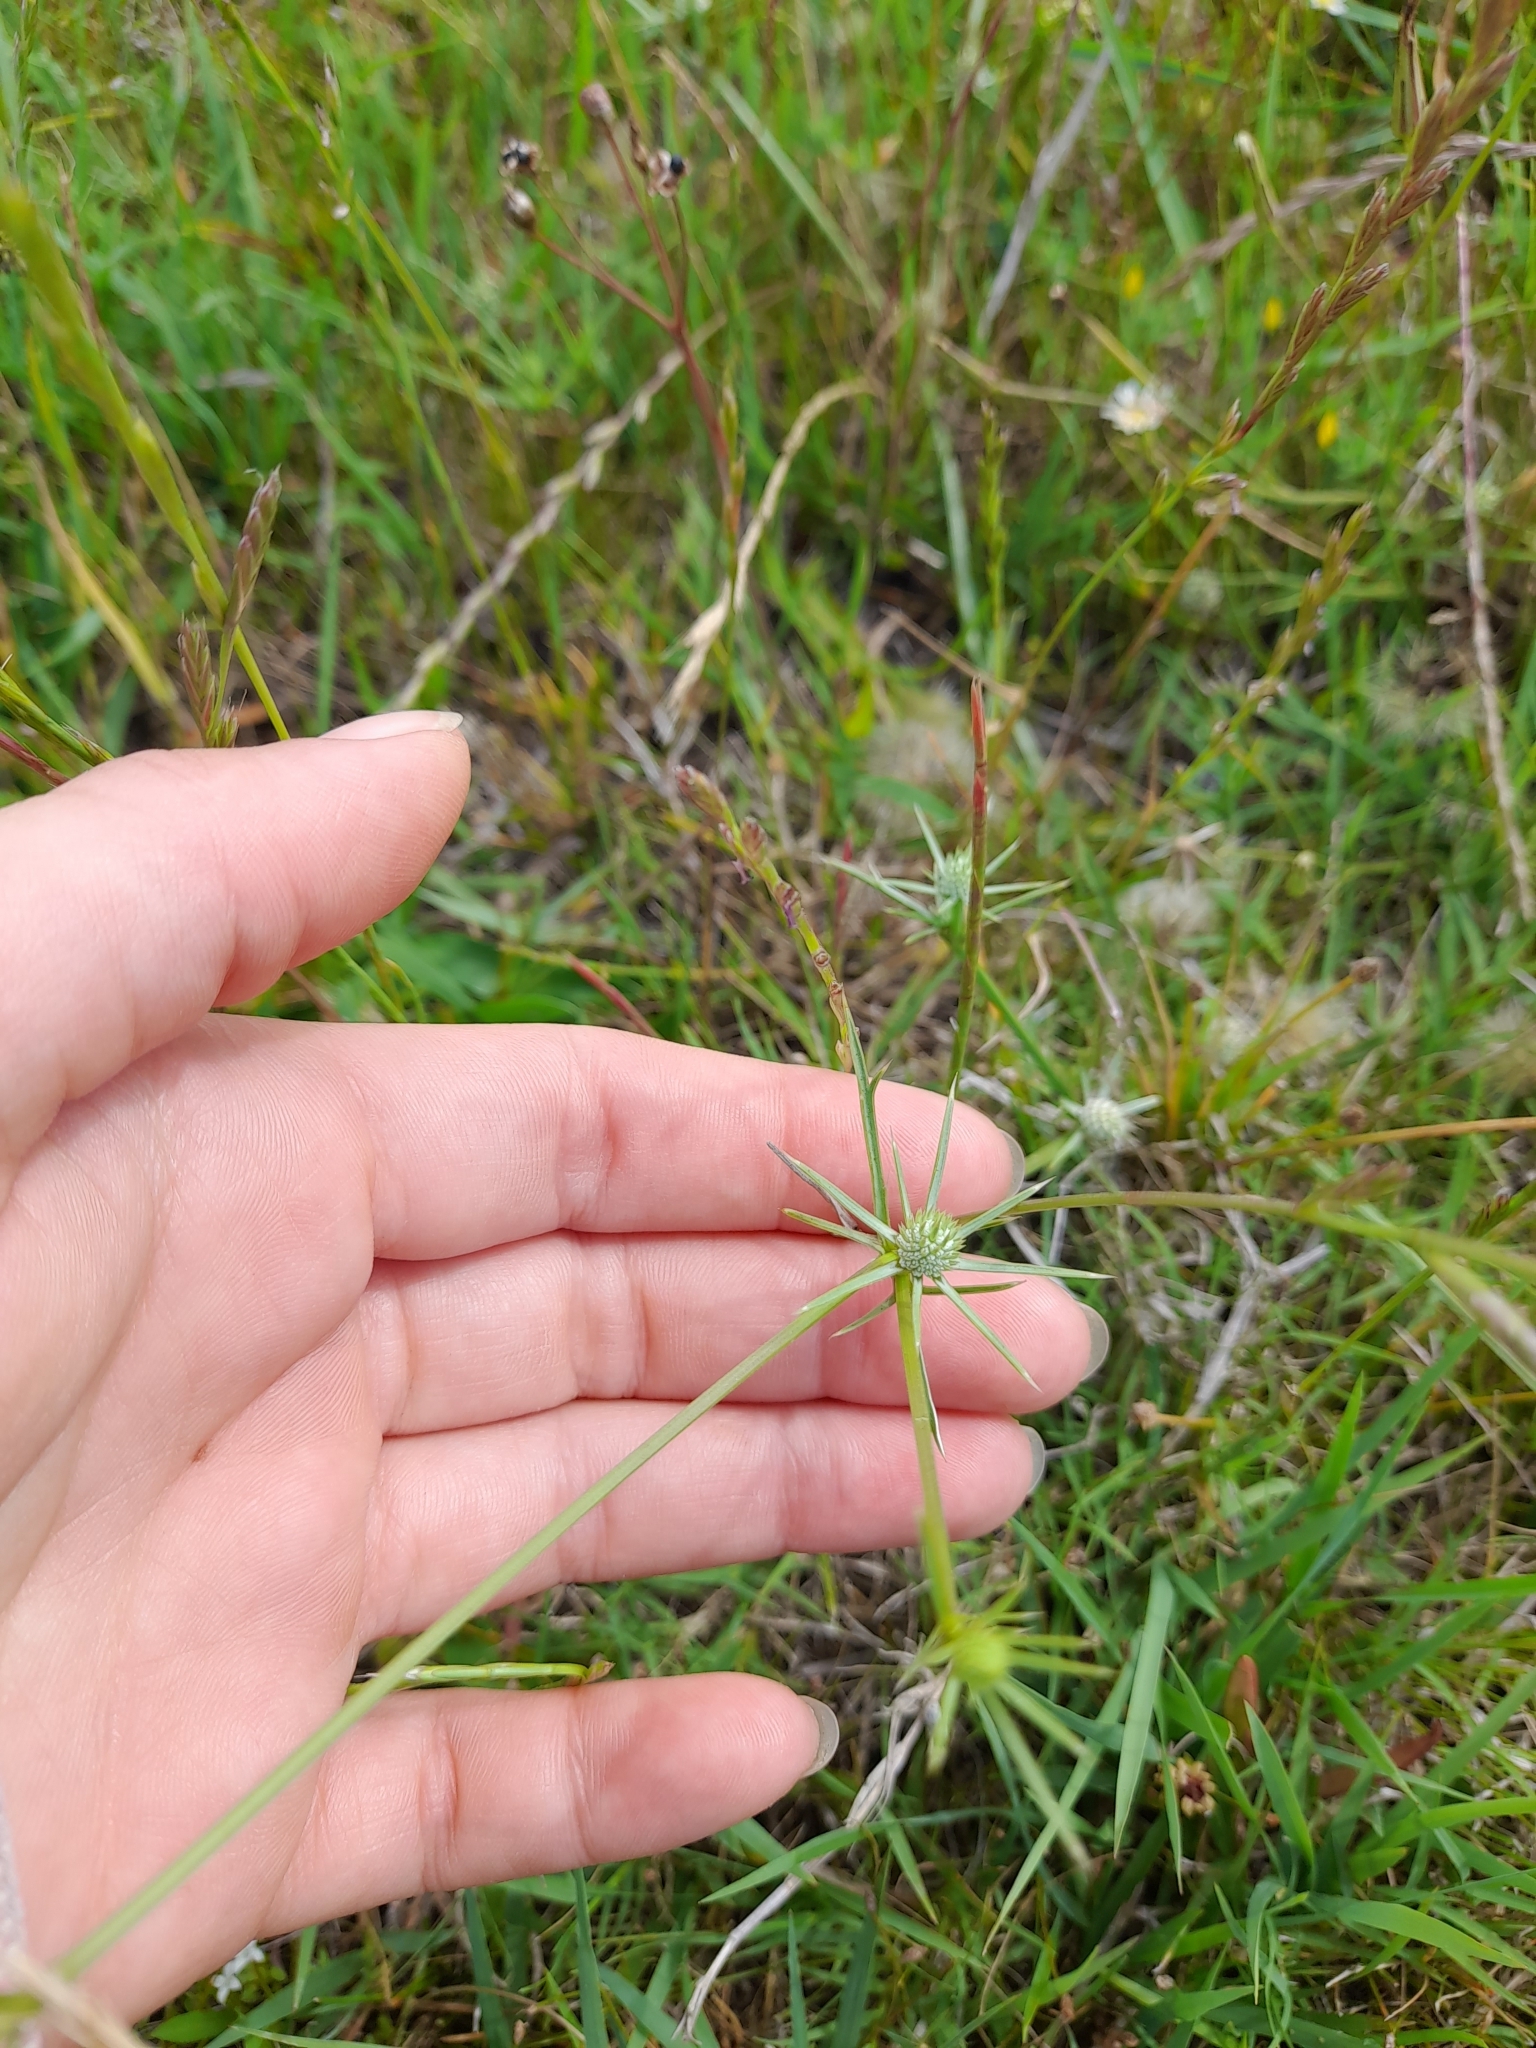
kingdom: Plantae
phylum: Tracheophyta
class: Magnoliopsida
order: Apiales
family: Apiaceae
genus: Eryngium
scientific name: Eryngium echinatum
